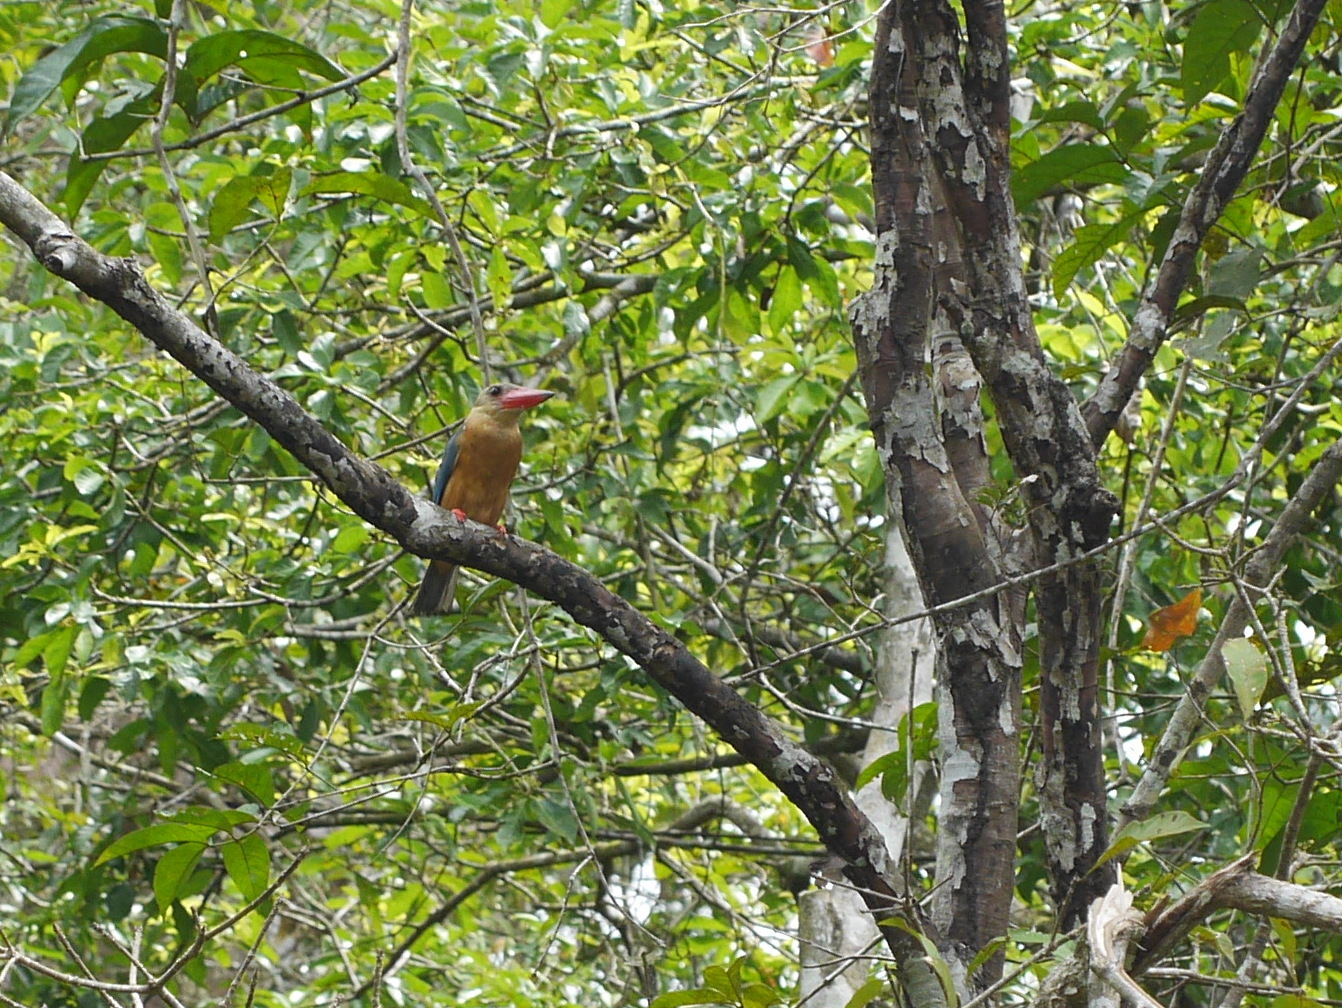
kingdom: Animalia
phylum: Chordata
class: Aves
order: Coraciiformes
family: Alcedinidae
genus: Pelargopsis
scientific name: Pelargopsis capensis
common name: Stork-billed kingfisher
